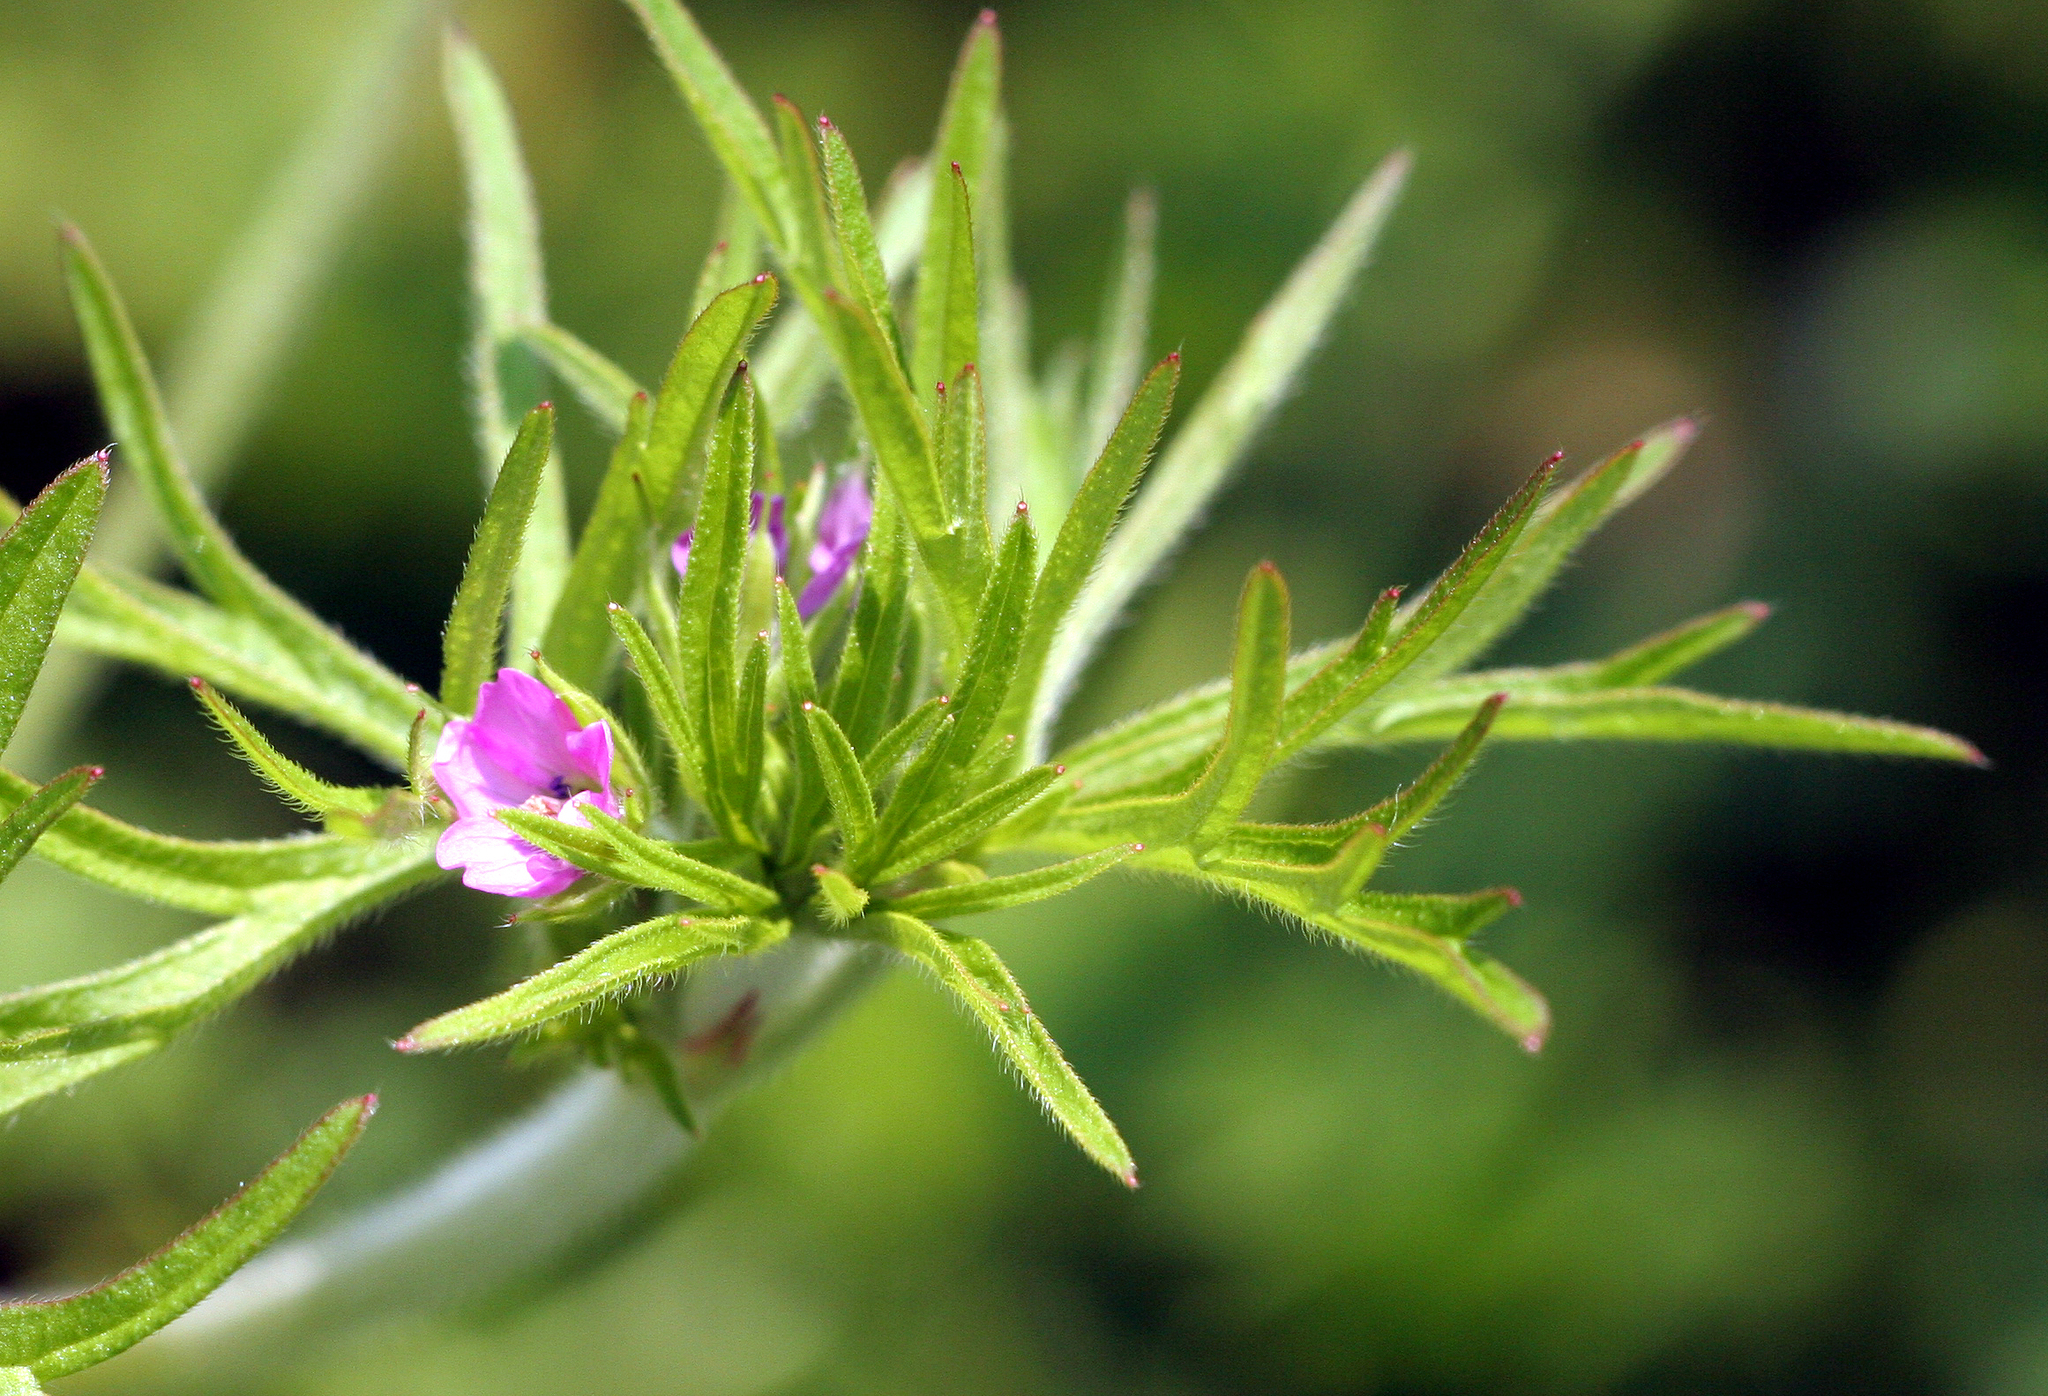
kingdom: Plantae
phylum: Tracheophyta
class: Magnoliopsida
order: Geraniales
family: Geraniaceae
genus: Geranium
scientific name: Geranium dissectum
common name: Cut-leaved crane's-bill
